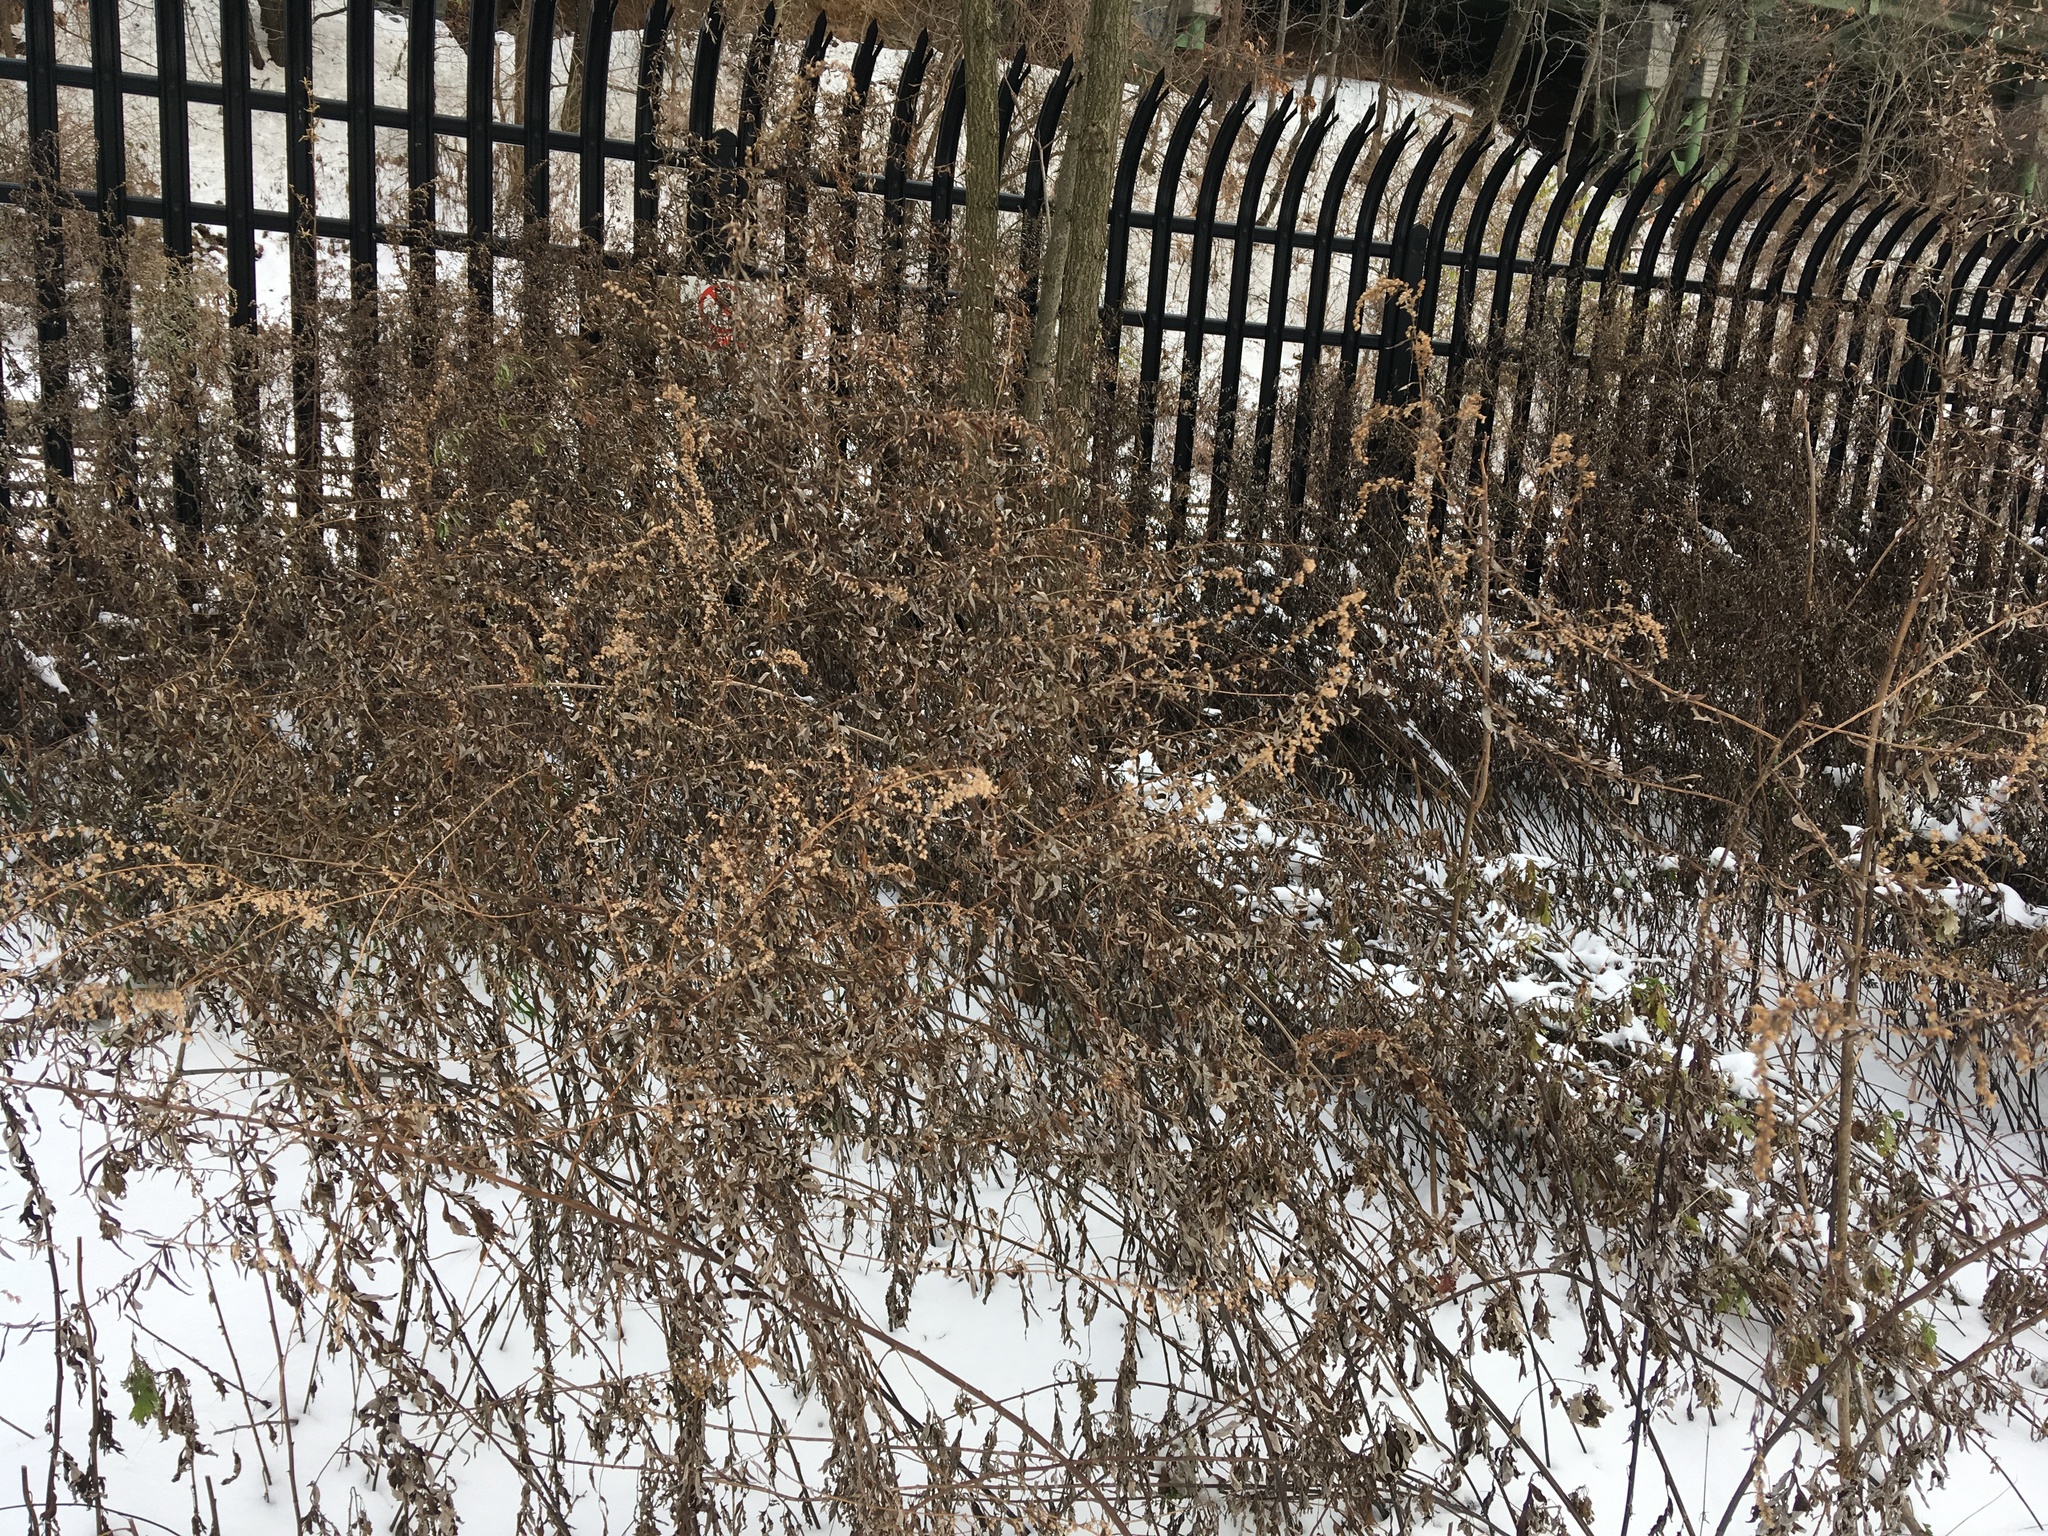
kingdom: Plantae
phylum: Tracheophyta
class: Magnoliopsida
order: Asterales
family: Asteraceae
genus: Artemisia
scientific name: Artemisia vulgaris
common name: Mugwort
